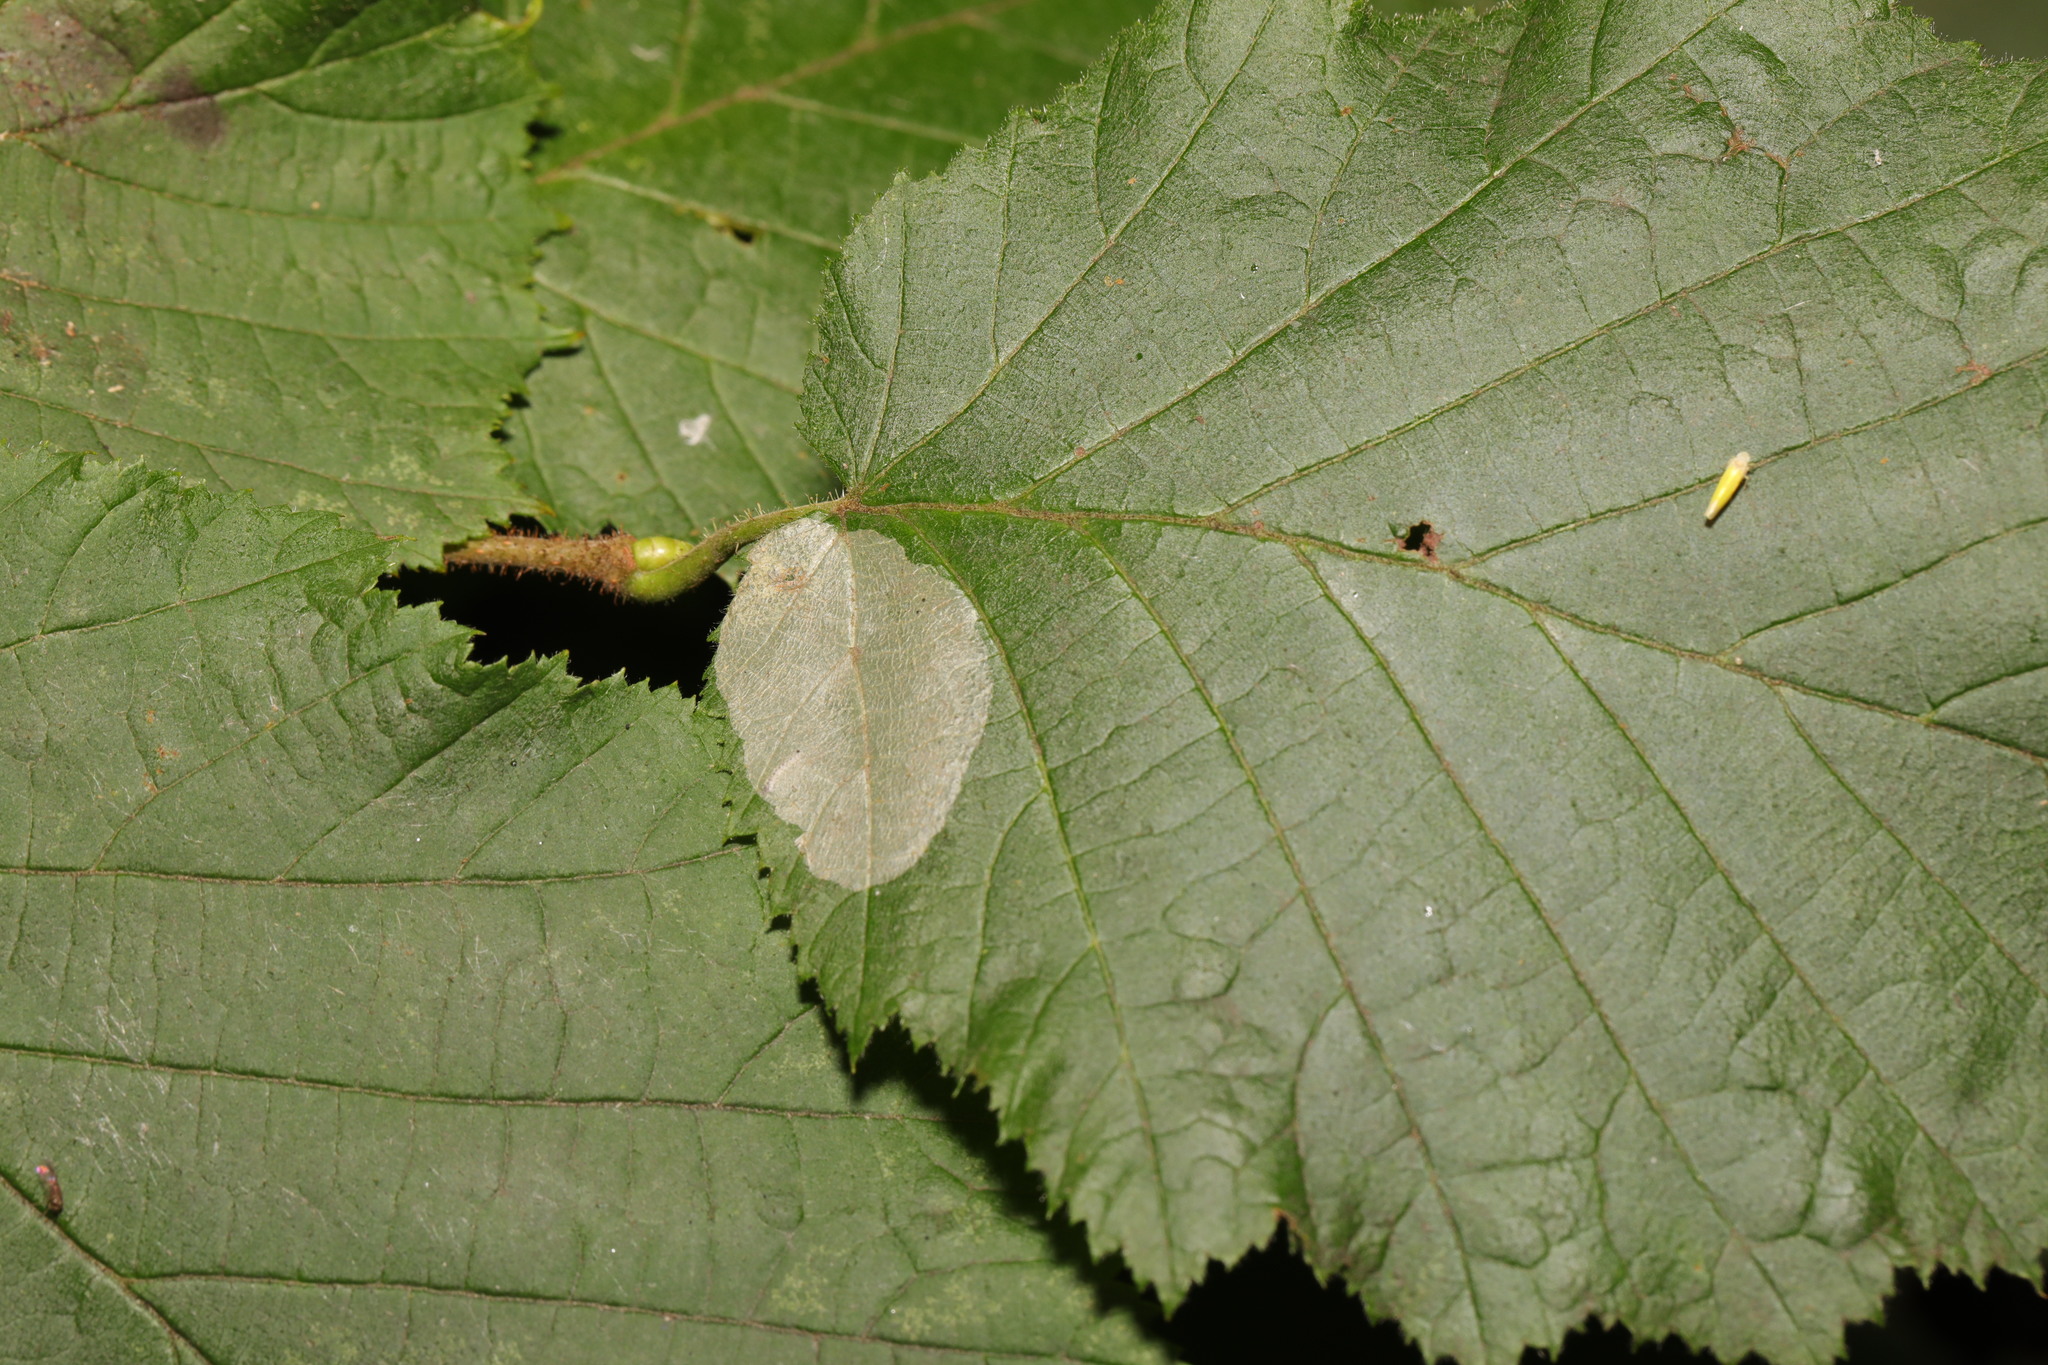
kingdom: Animalia
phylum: Arthropoda
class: Insecta
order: Lepidoptera
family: Gracillariidae
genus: Phyllonorycter
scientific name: Phyllonorycter coryli
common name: Nut-leaf blister moth
